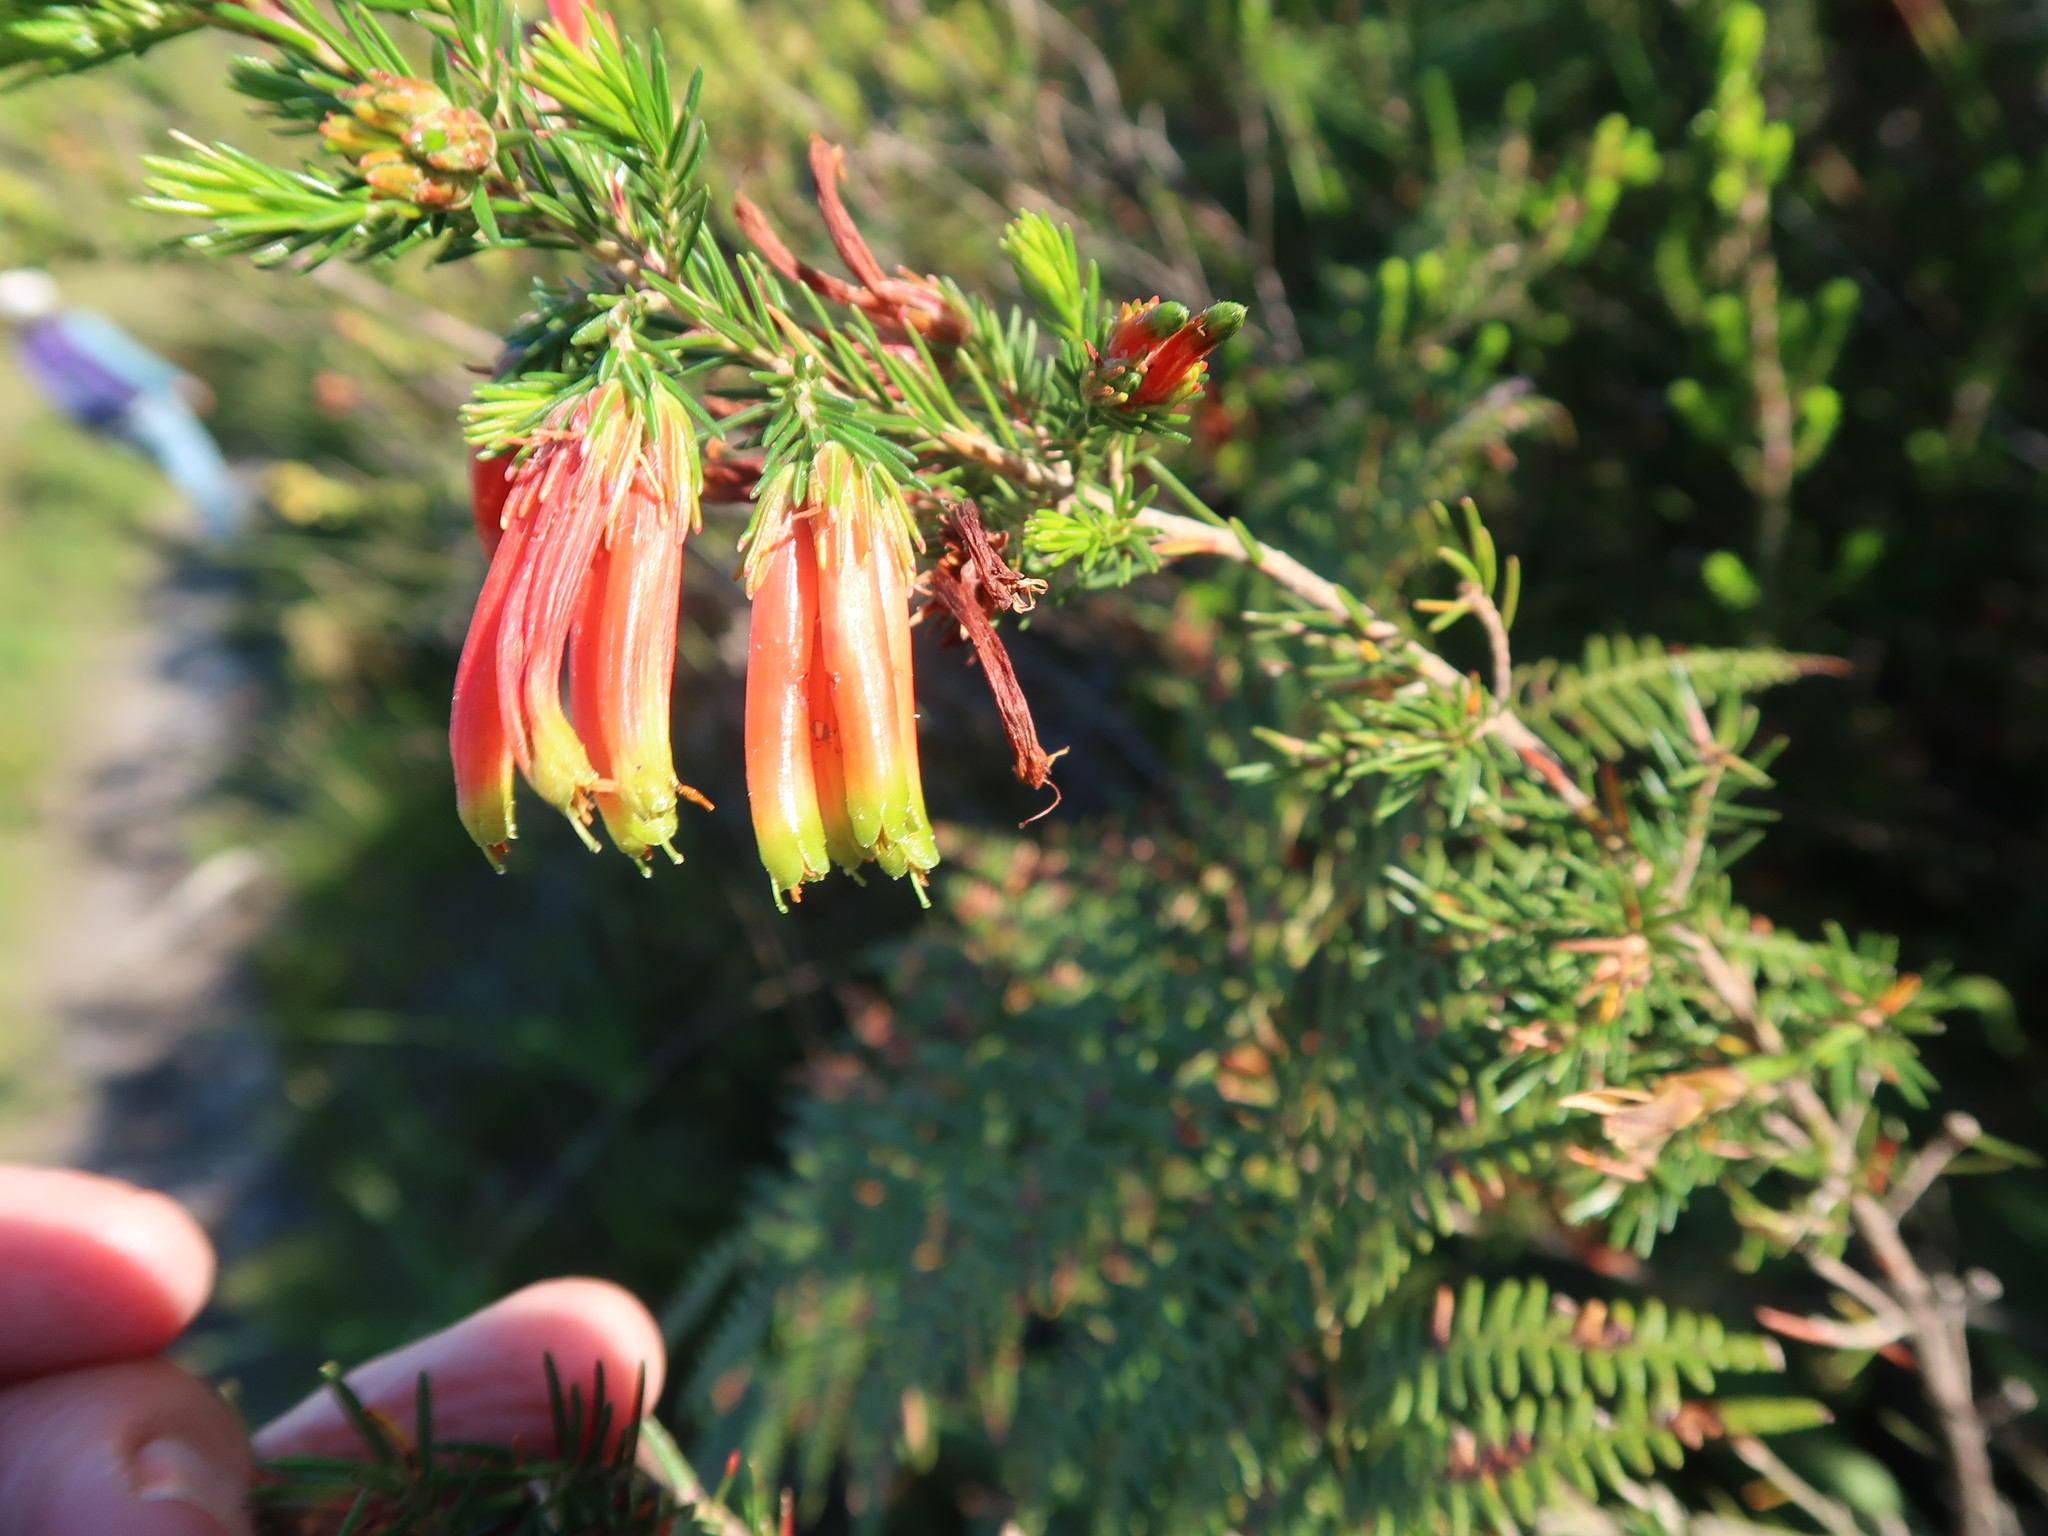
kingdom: Plantae
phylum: Tracheophyta
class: Magnoliopsida
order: Ericales
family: Ericaceae
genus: Erica
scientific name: Erica unicolor
